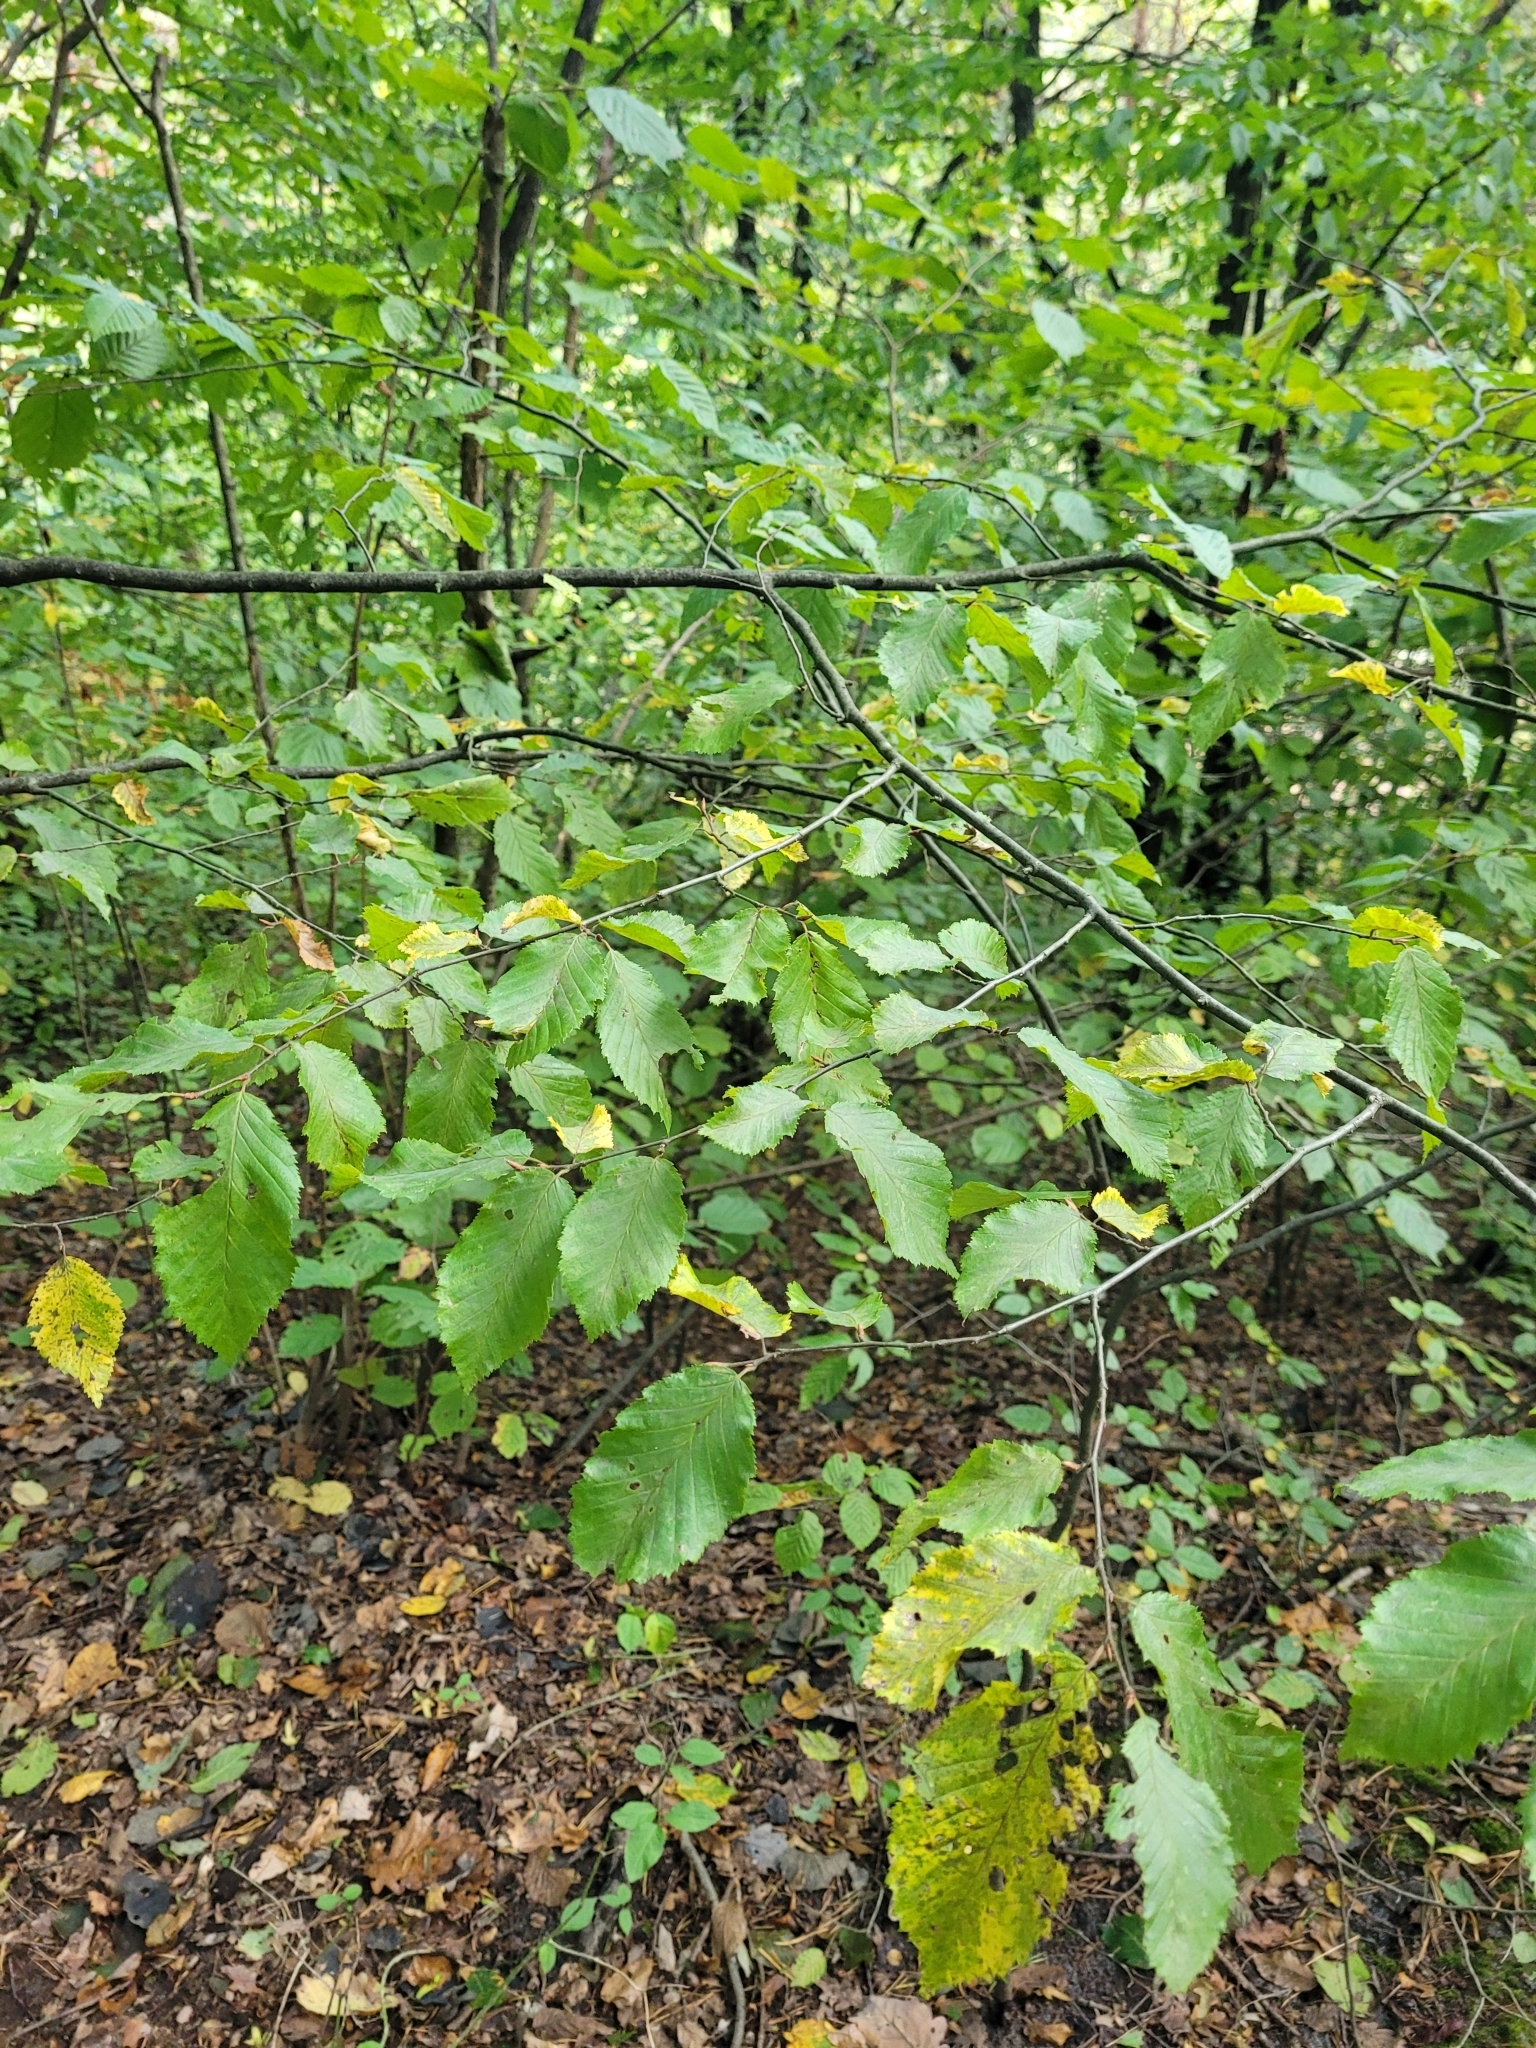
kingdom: Plantae
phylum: Tracheophyta
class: Magnoliopsida
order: Fagales
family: Betulaceae
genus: Carpinus
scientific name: Carpinus betulus
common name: Hornbeam
